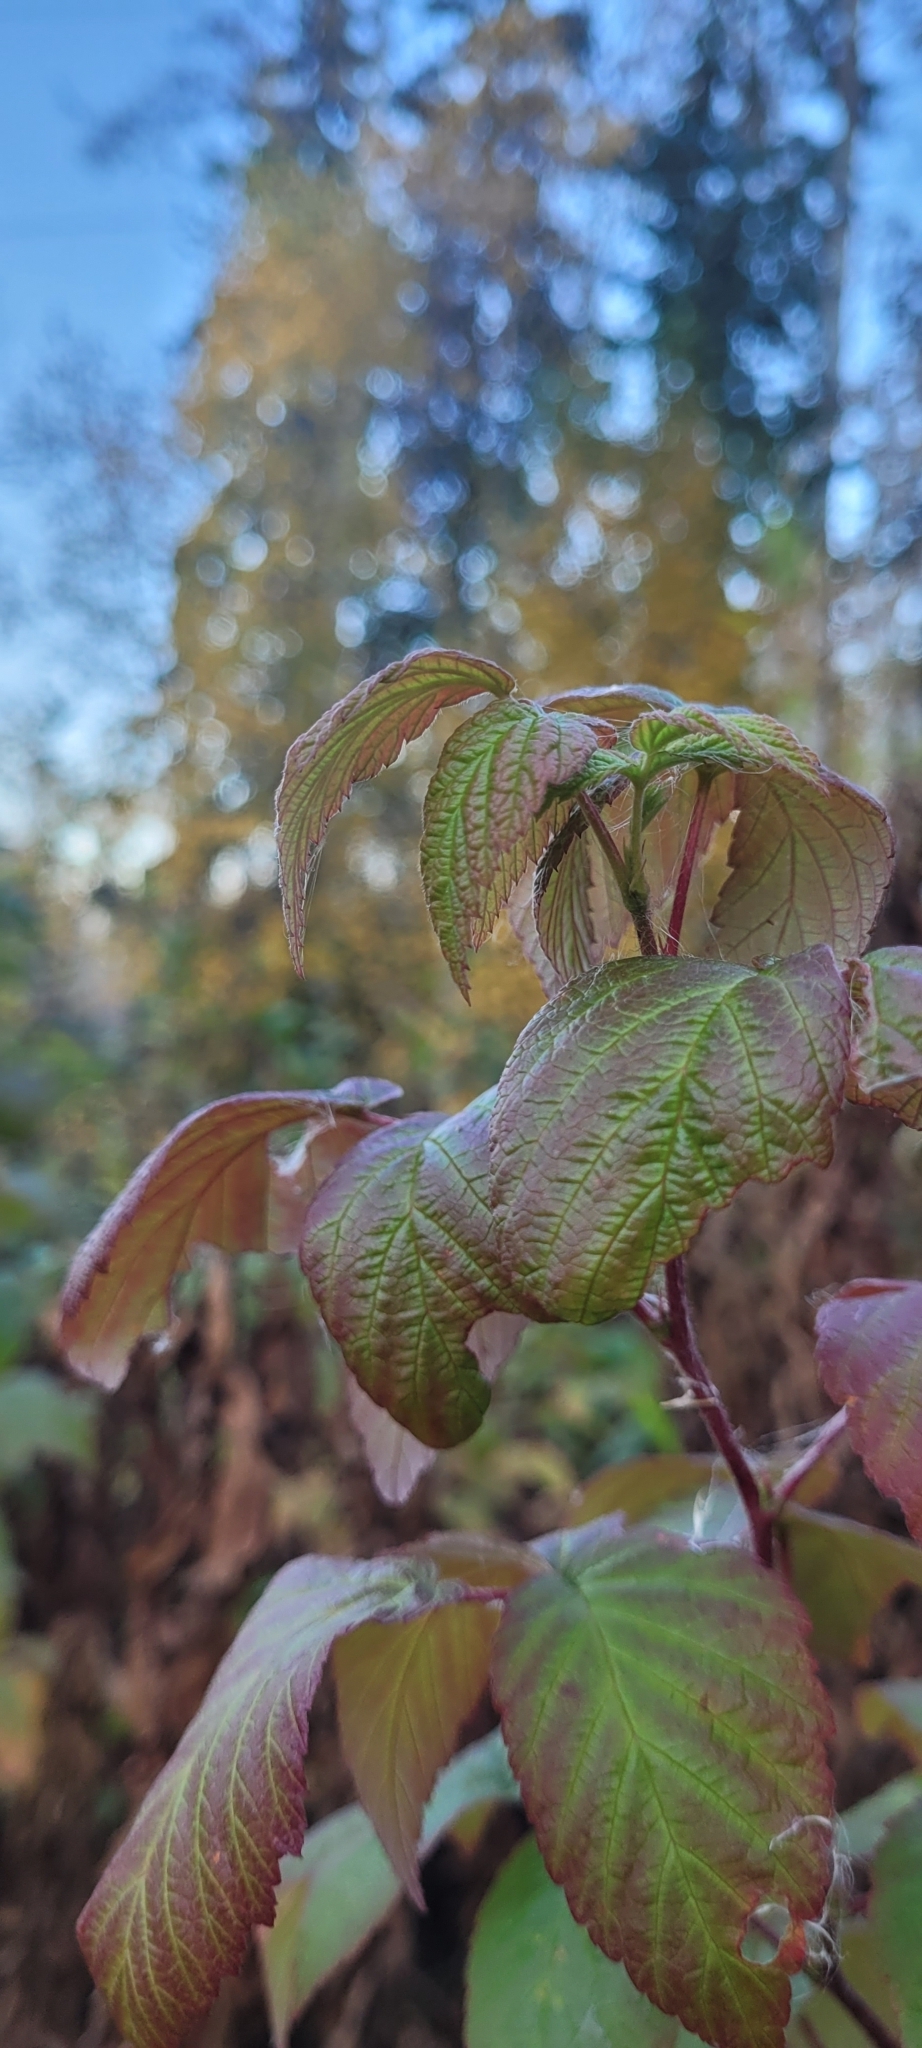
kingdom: Plantae
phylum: Tracheophyta
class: Magnoliopsida
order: Rosales
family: Rosaceae
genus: Rubus
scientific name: Rubus idaeus
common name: Raspberry
